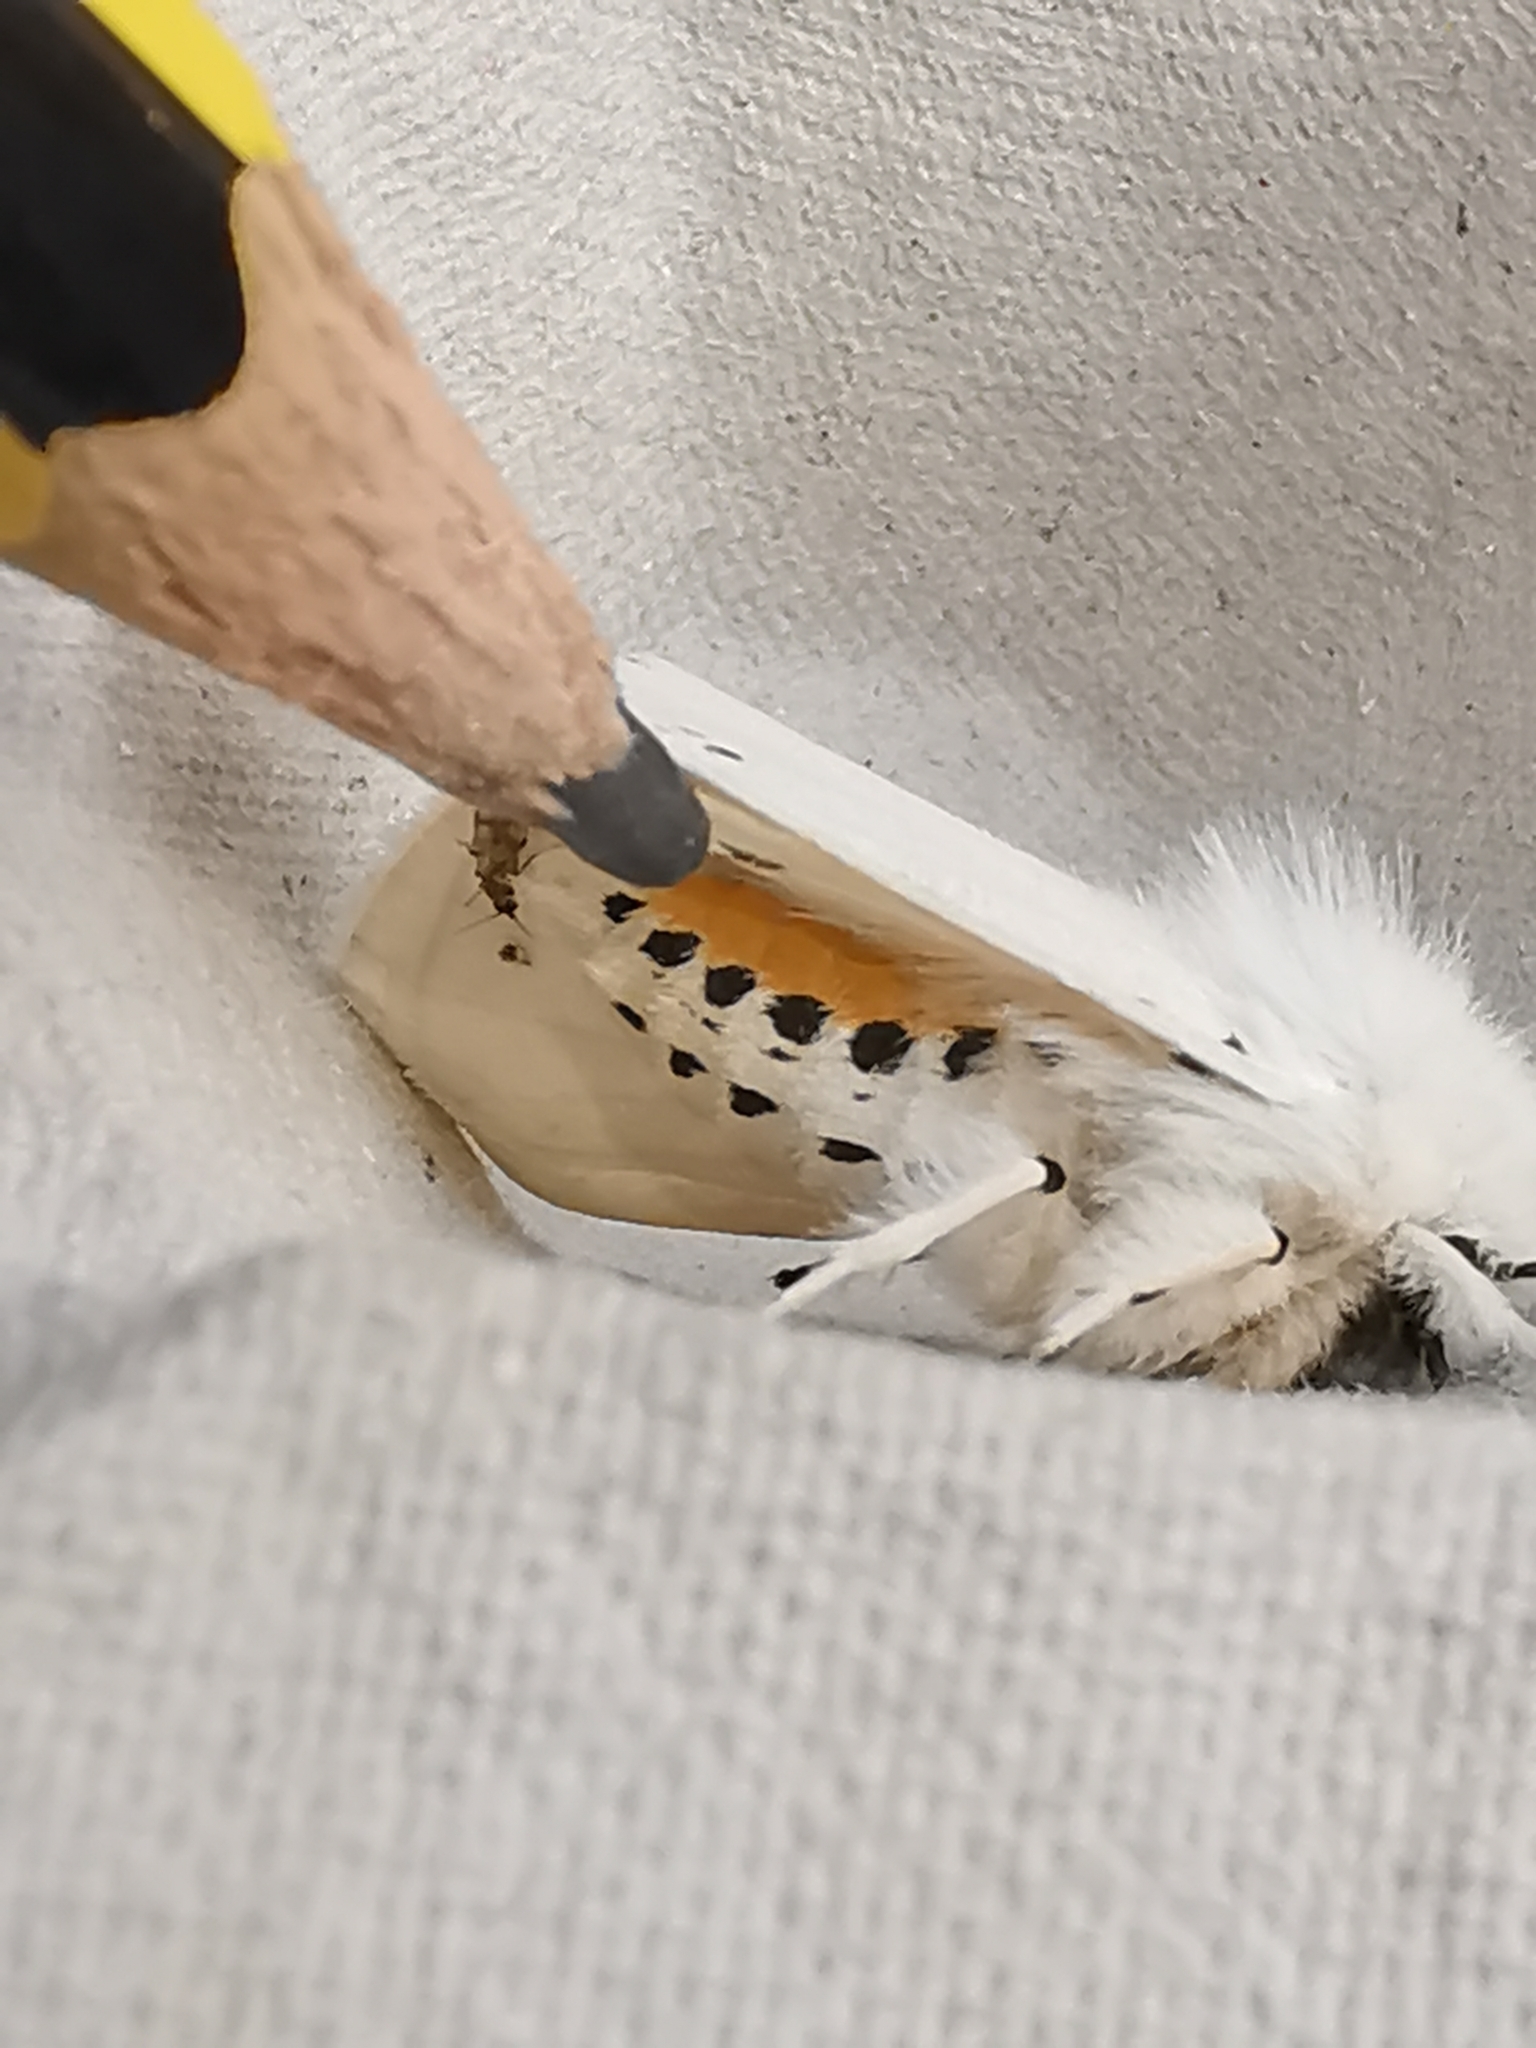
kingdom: Animalia
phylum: Arthropoda
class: Insecta
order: Lepidoptera
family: Erebidae
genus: Spilosoma
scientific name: Spilosoma lubricipeda
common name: White ermine
